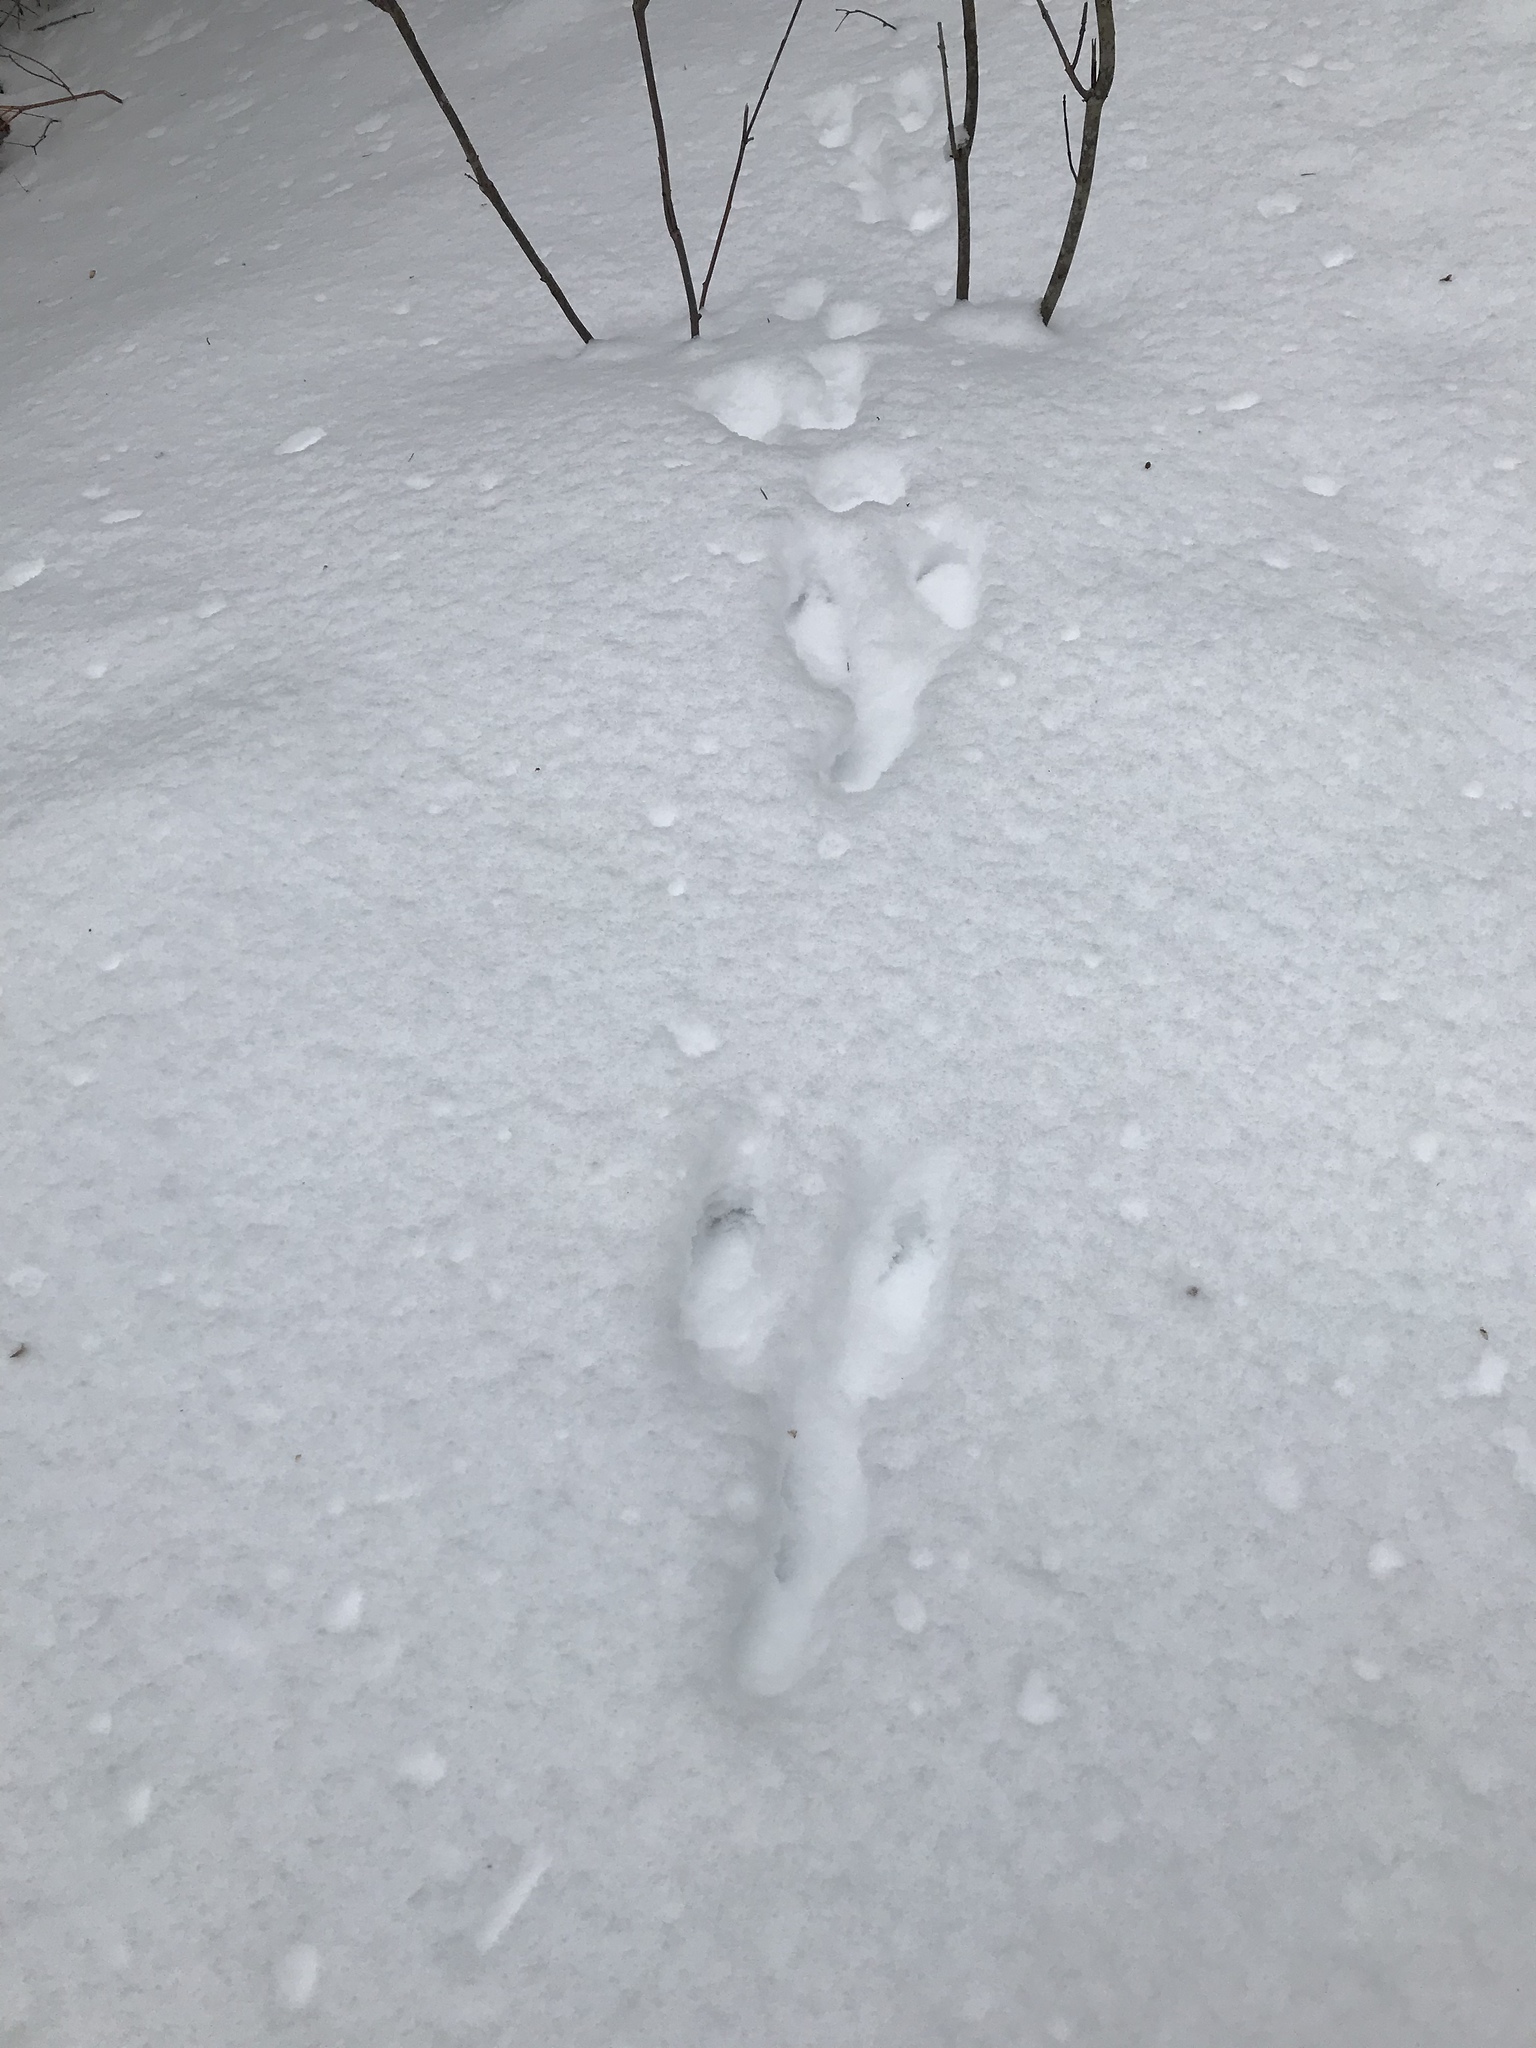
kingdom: Animalia
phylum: Chordata
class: Mammalia
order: Lagomorpha
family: Leporidae
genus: Lepus
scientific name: Lepus americanus
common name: Snowshoe hare
